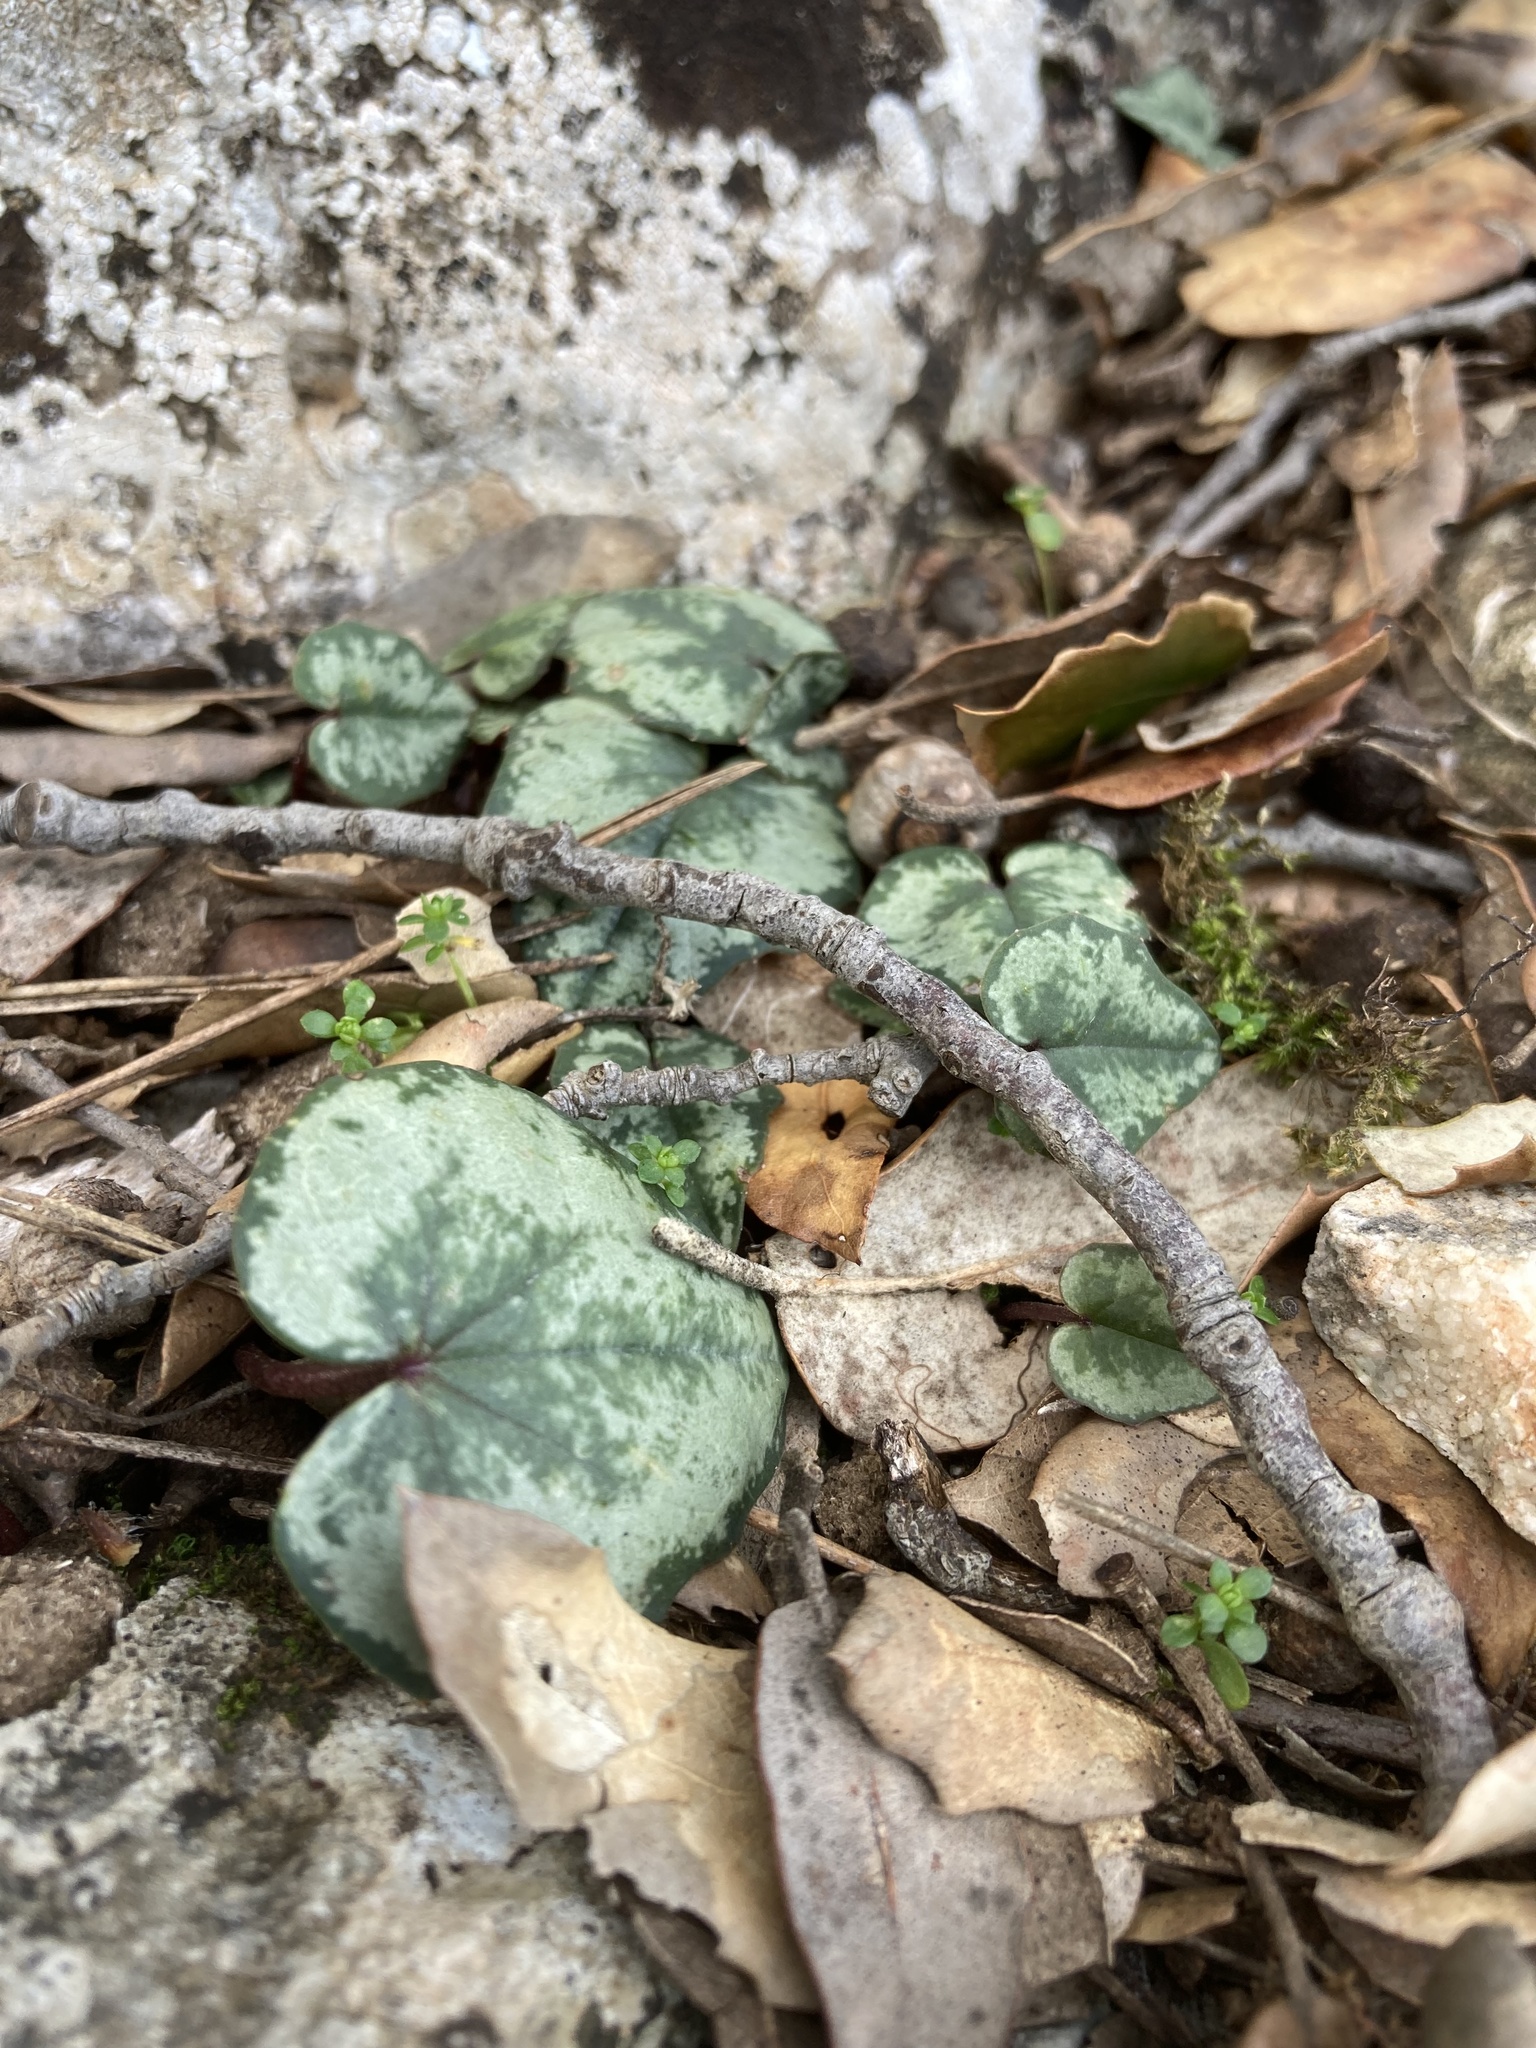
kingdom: Plantae
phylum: Tracheophyta
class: Magnoliopsida
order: Ericales
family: Primulaceae
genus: Cyclamen
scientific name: Cyclamen balearicum
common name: Majorca cyclamen
